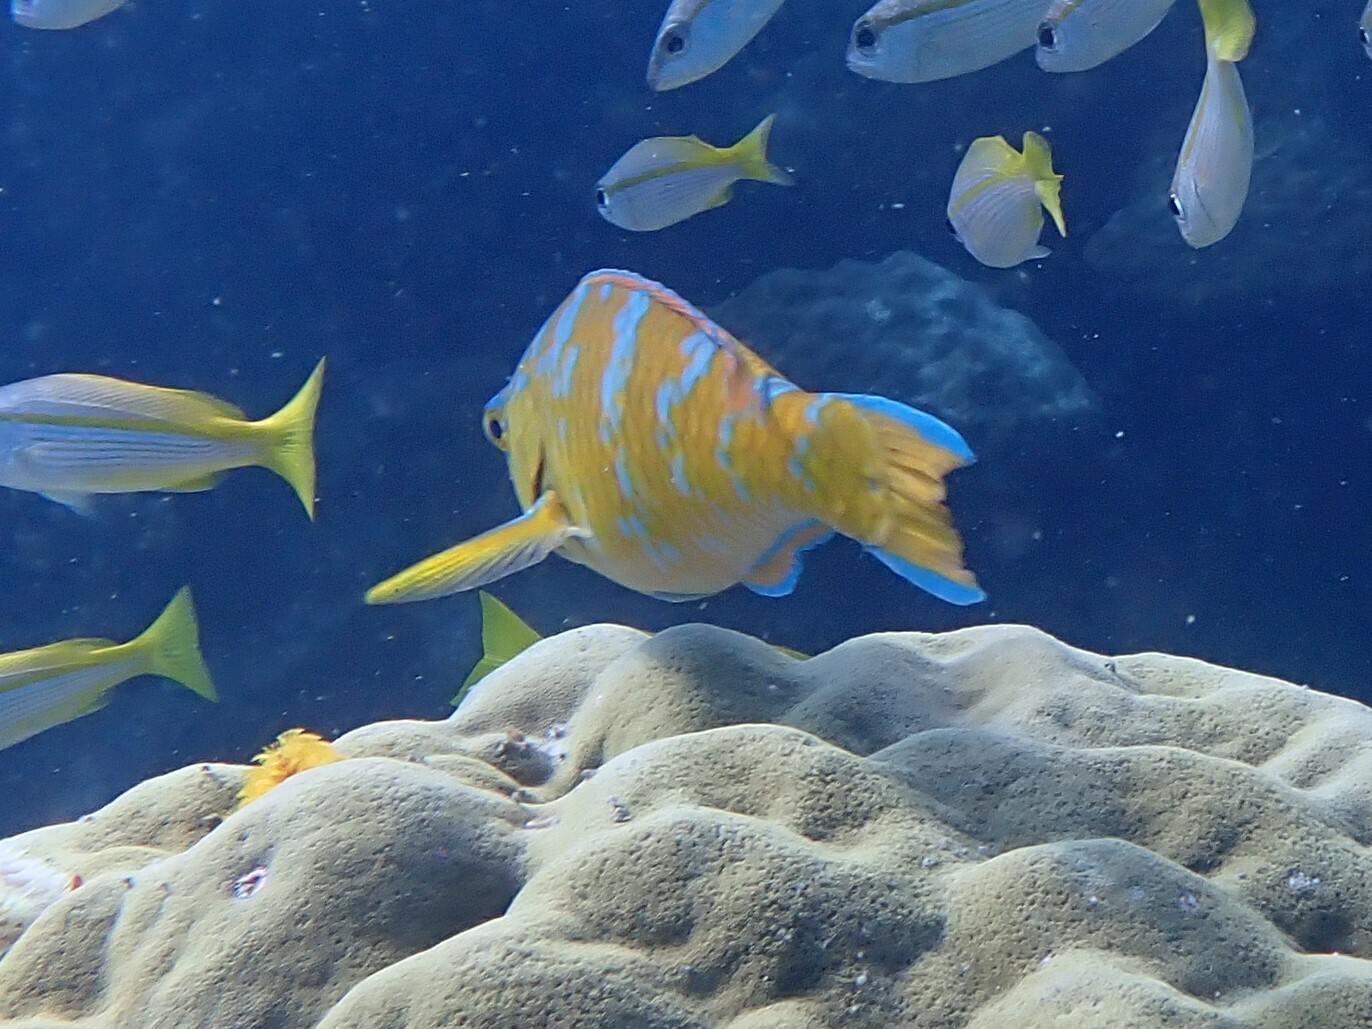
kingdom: Animalia
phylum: Chordata
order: Perciformes
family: Scaridae
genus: Scarus
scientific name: Scarus ghobban
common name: Blue-barred parrotfish
